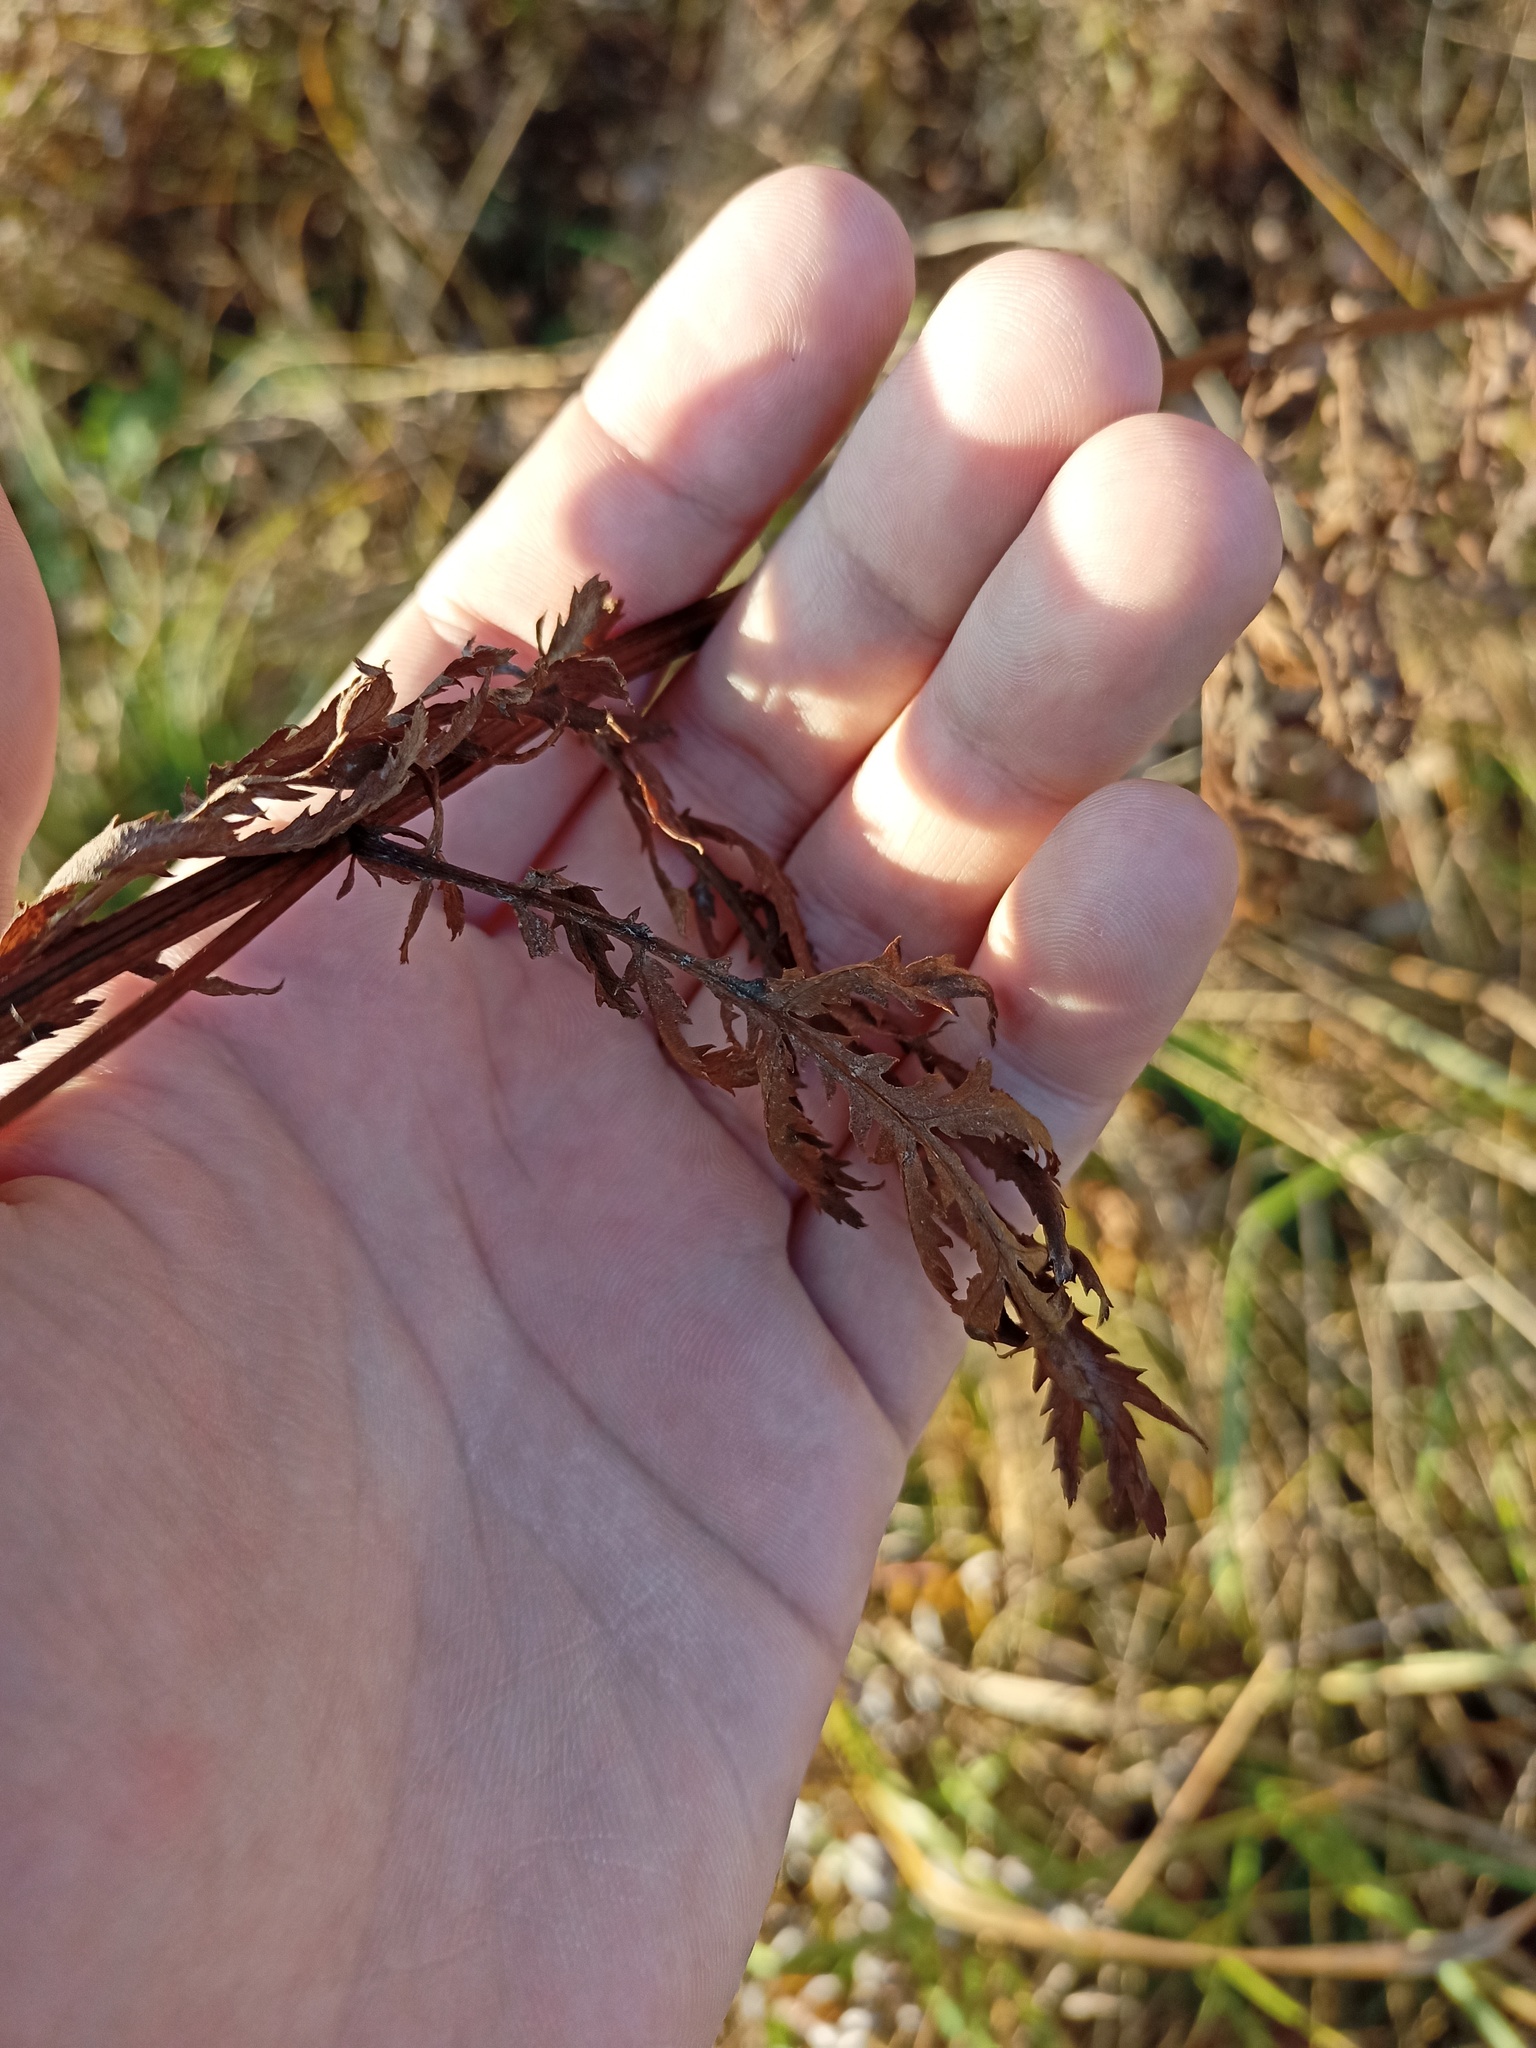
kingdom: Plantae
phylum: Tracheophyta
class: Magnoliopsida
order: Asterales
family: Asteraceae
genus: Tanacetum
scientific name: Tanacetum vulgare
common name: Common tansy
